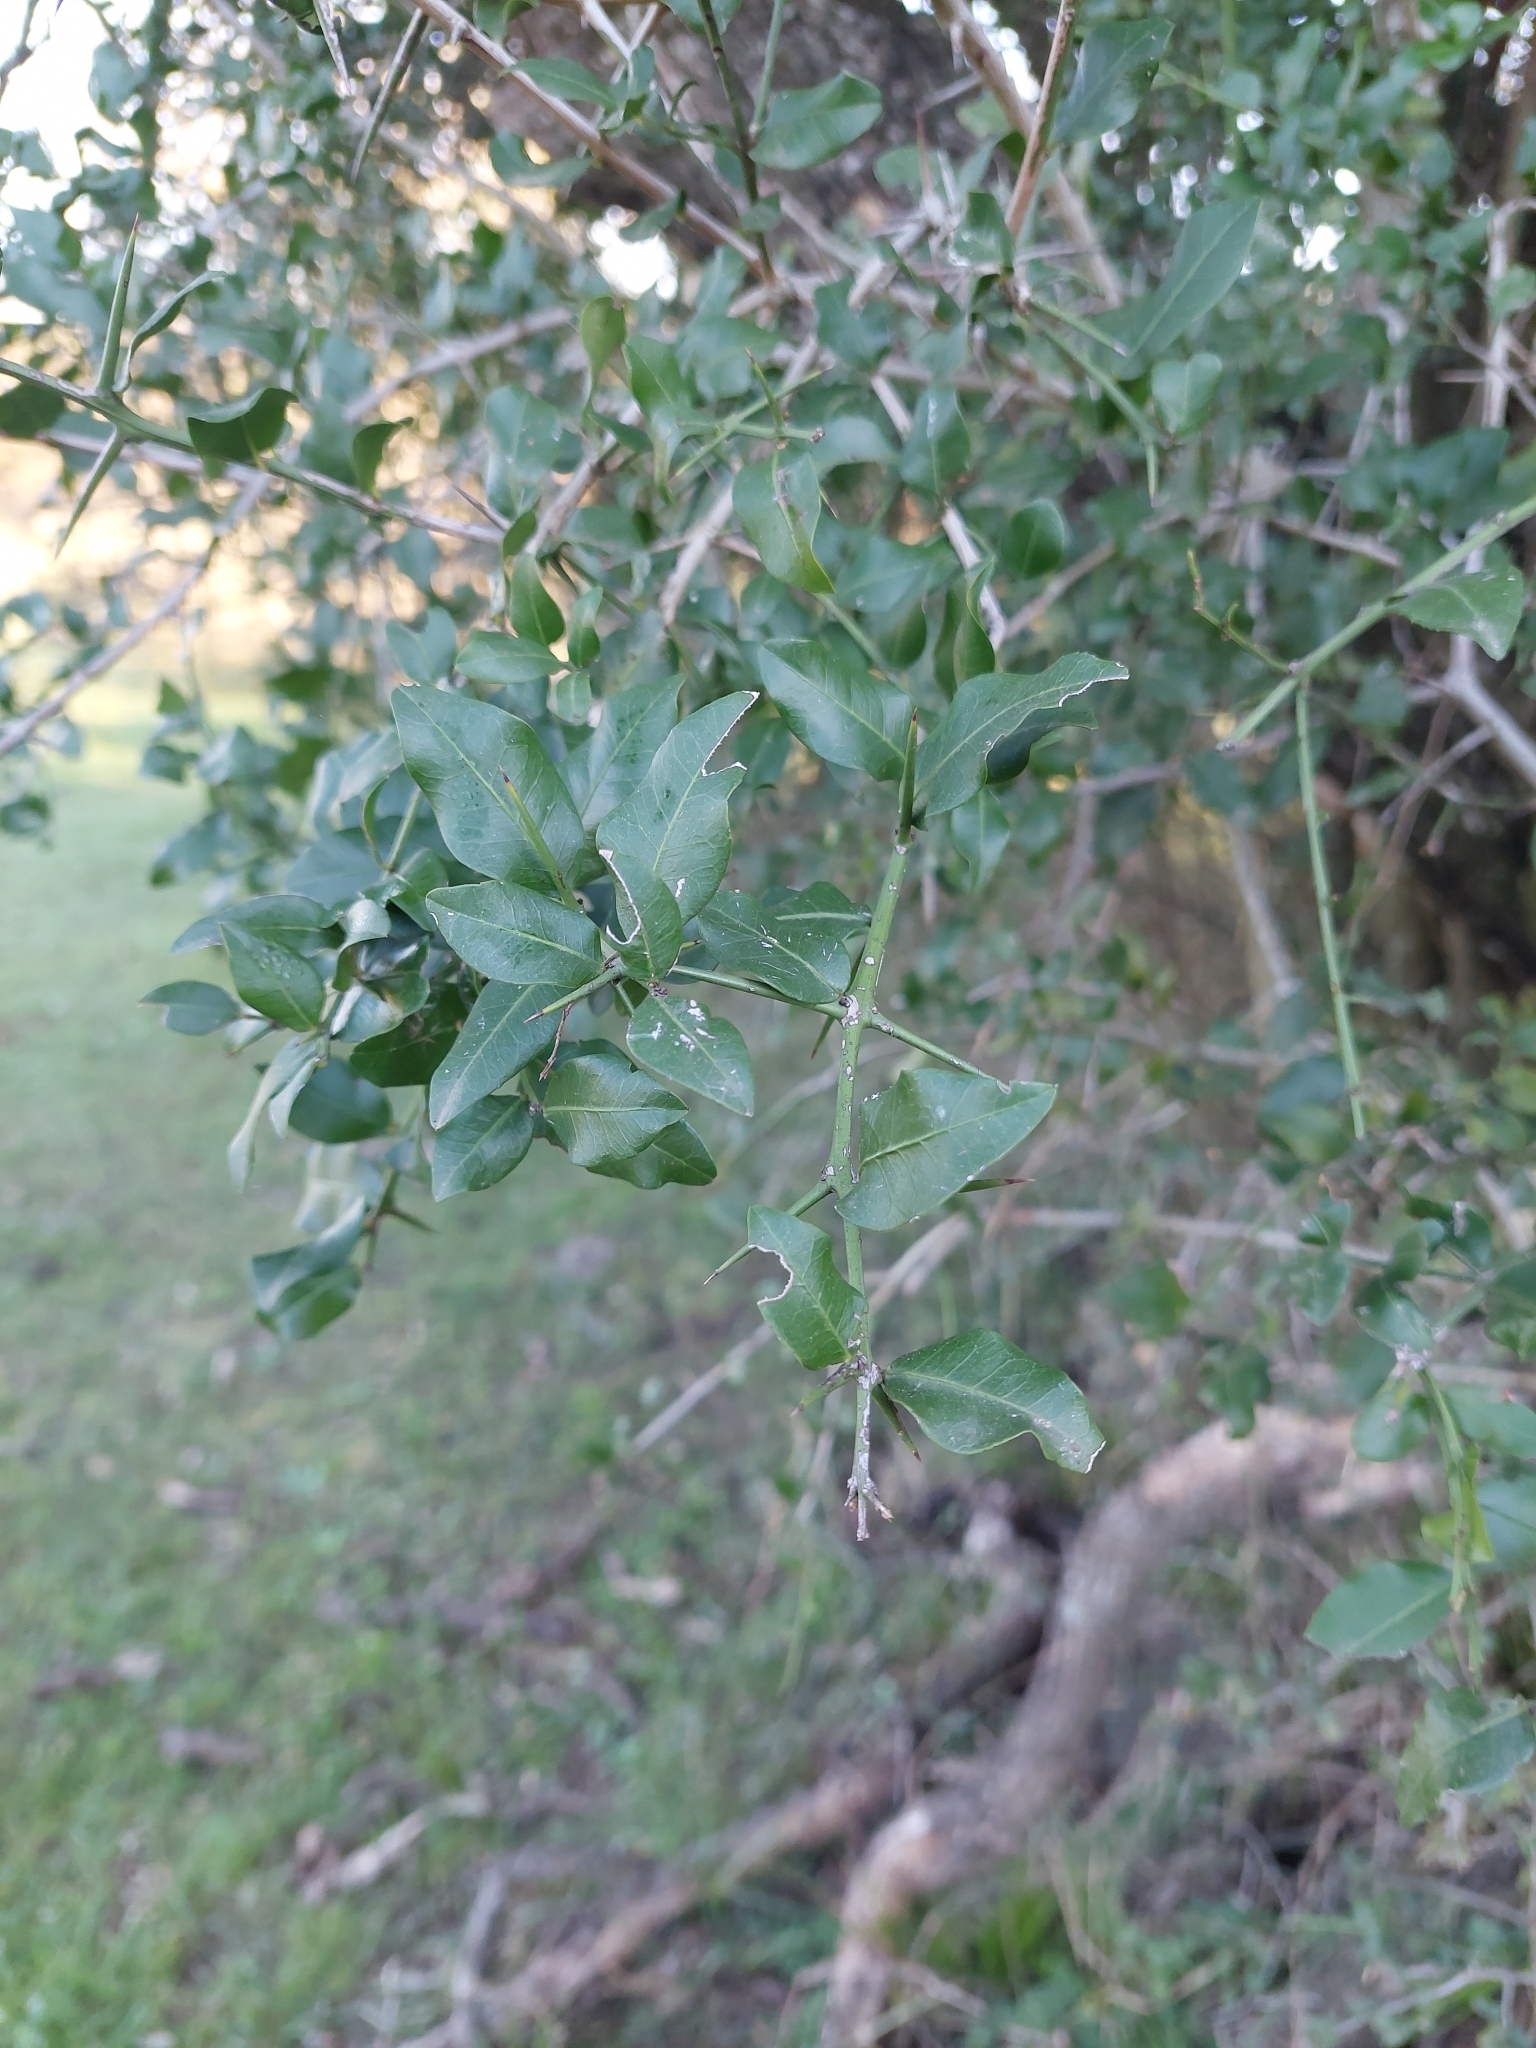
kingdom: Plantae
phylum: Tracheophyta
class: Magnoliopsida
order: Rosales
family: Rhamnaceae
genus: Scutia
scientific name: Scutia buxifolia
